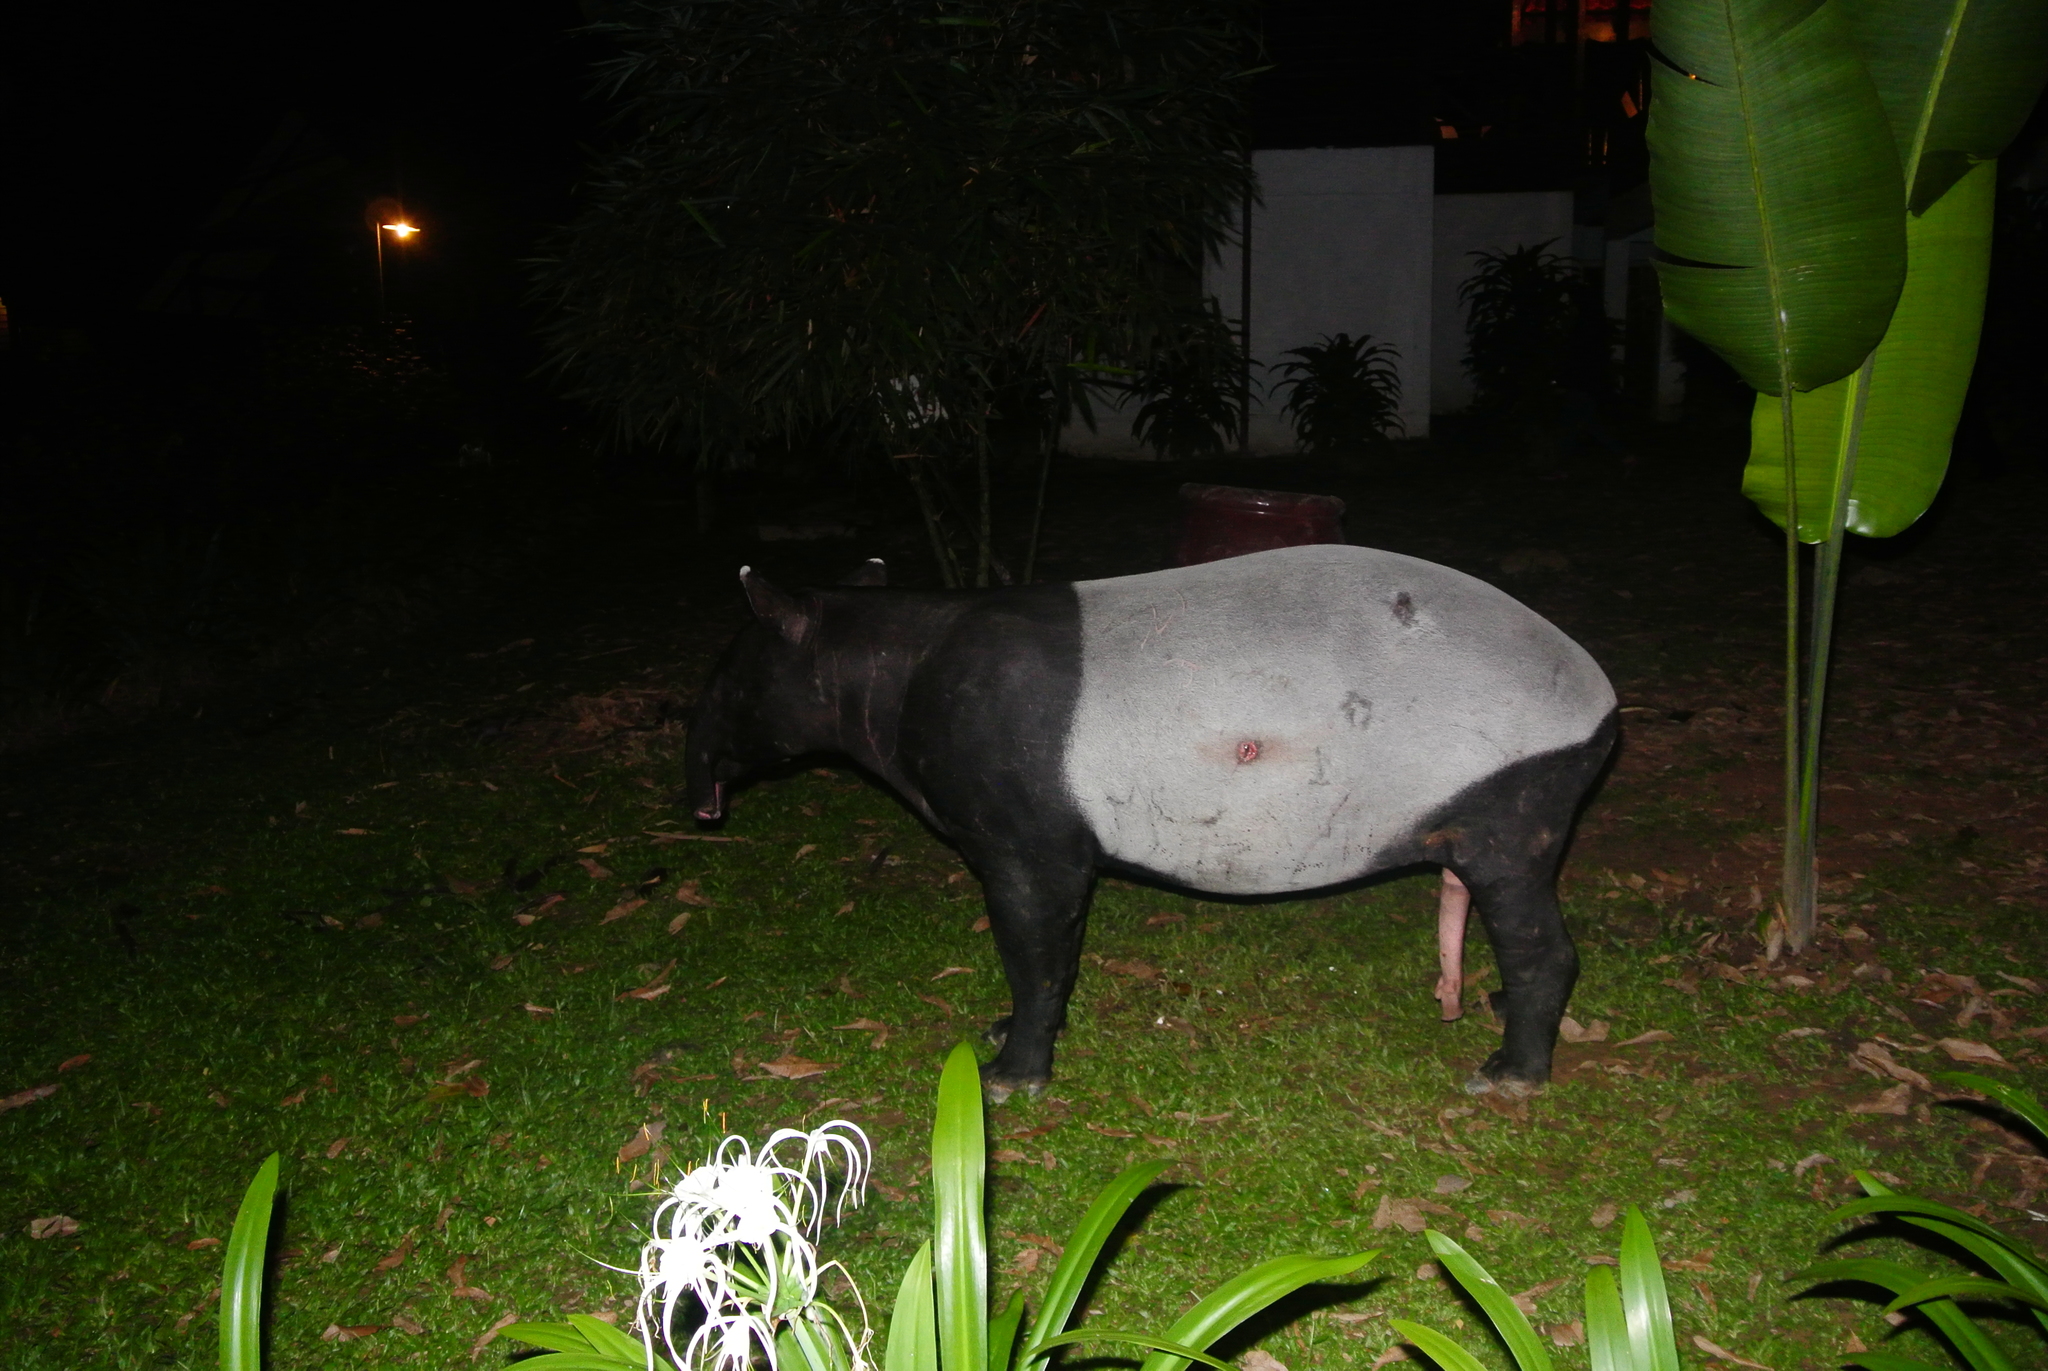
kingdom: Animalia
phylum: Chordata
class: Mammalia
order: Perissodactyla
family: Tapiridae
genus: Acrocodia
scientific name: Acrocodia indica
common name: Malayan tapir
